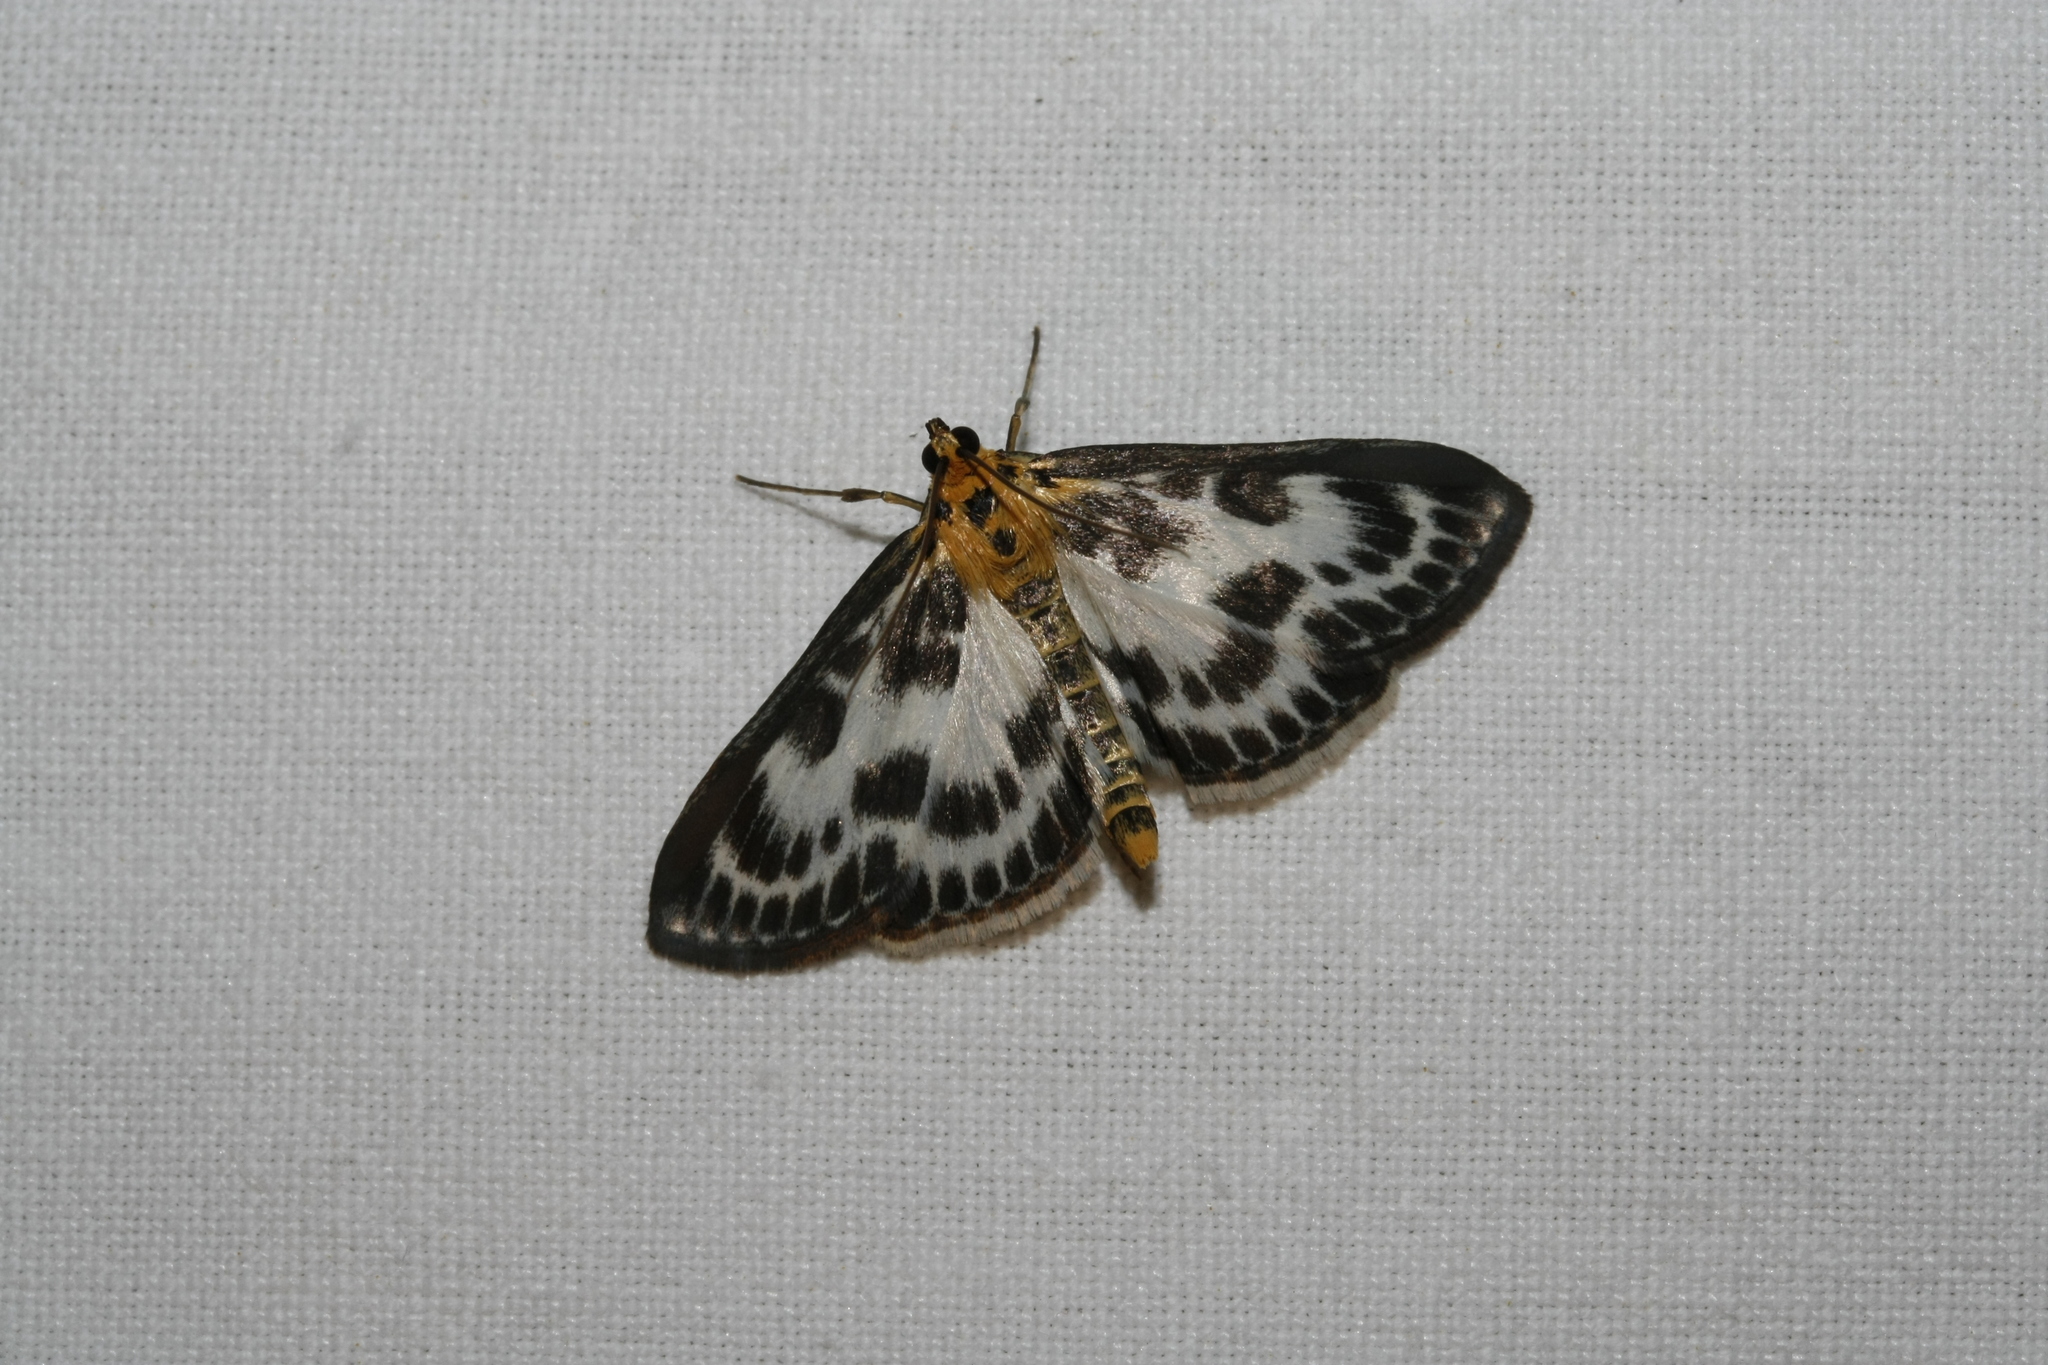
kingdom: Animalia
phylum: Arthropoda
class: Insecta
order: Lepidoptera
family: Crambidae
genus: Anania
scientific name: Anania hortulata
